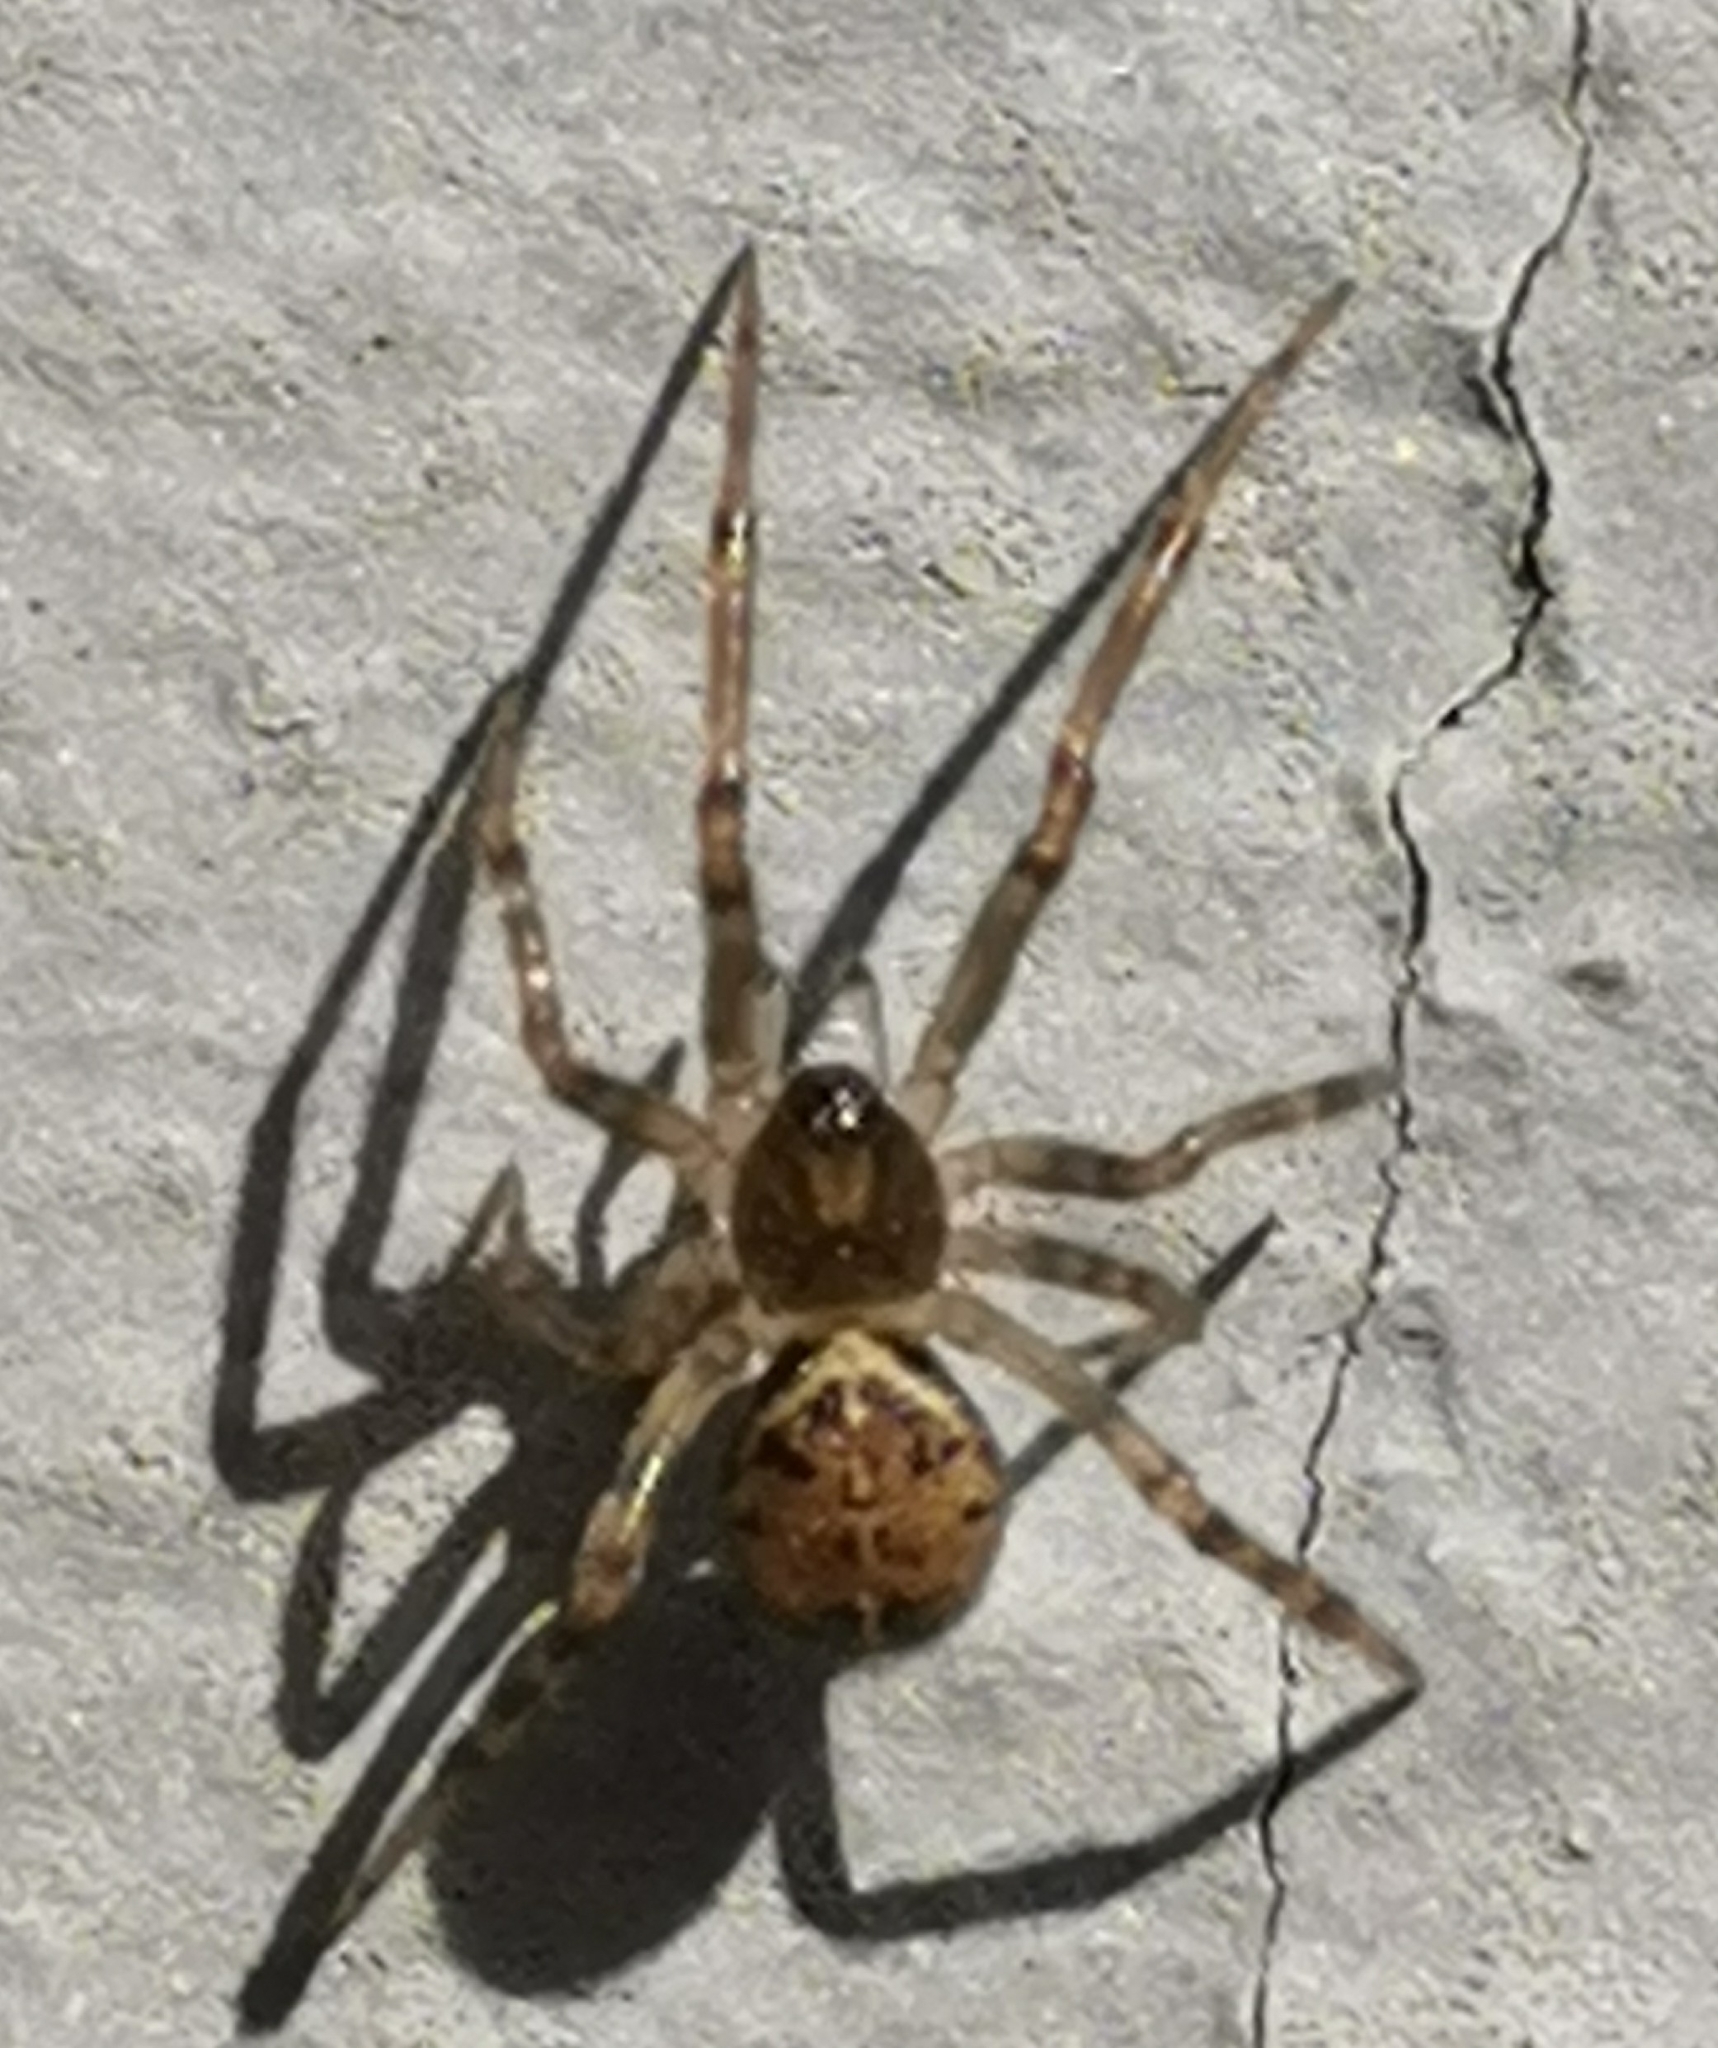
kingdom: Animalia
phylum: Arthropoda
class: Arachnida
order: Araneae
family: Theridiidae
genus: Steatoda
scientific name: Steatoda castanea
